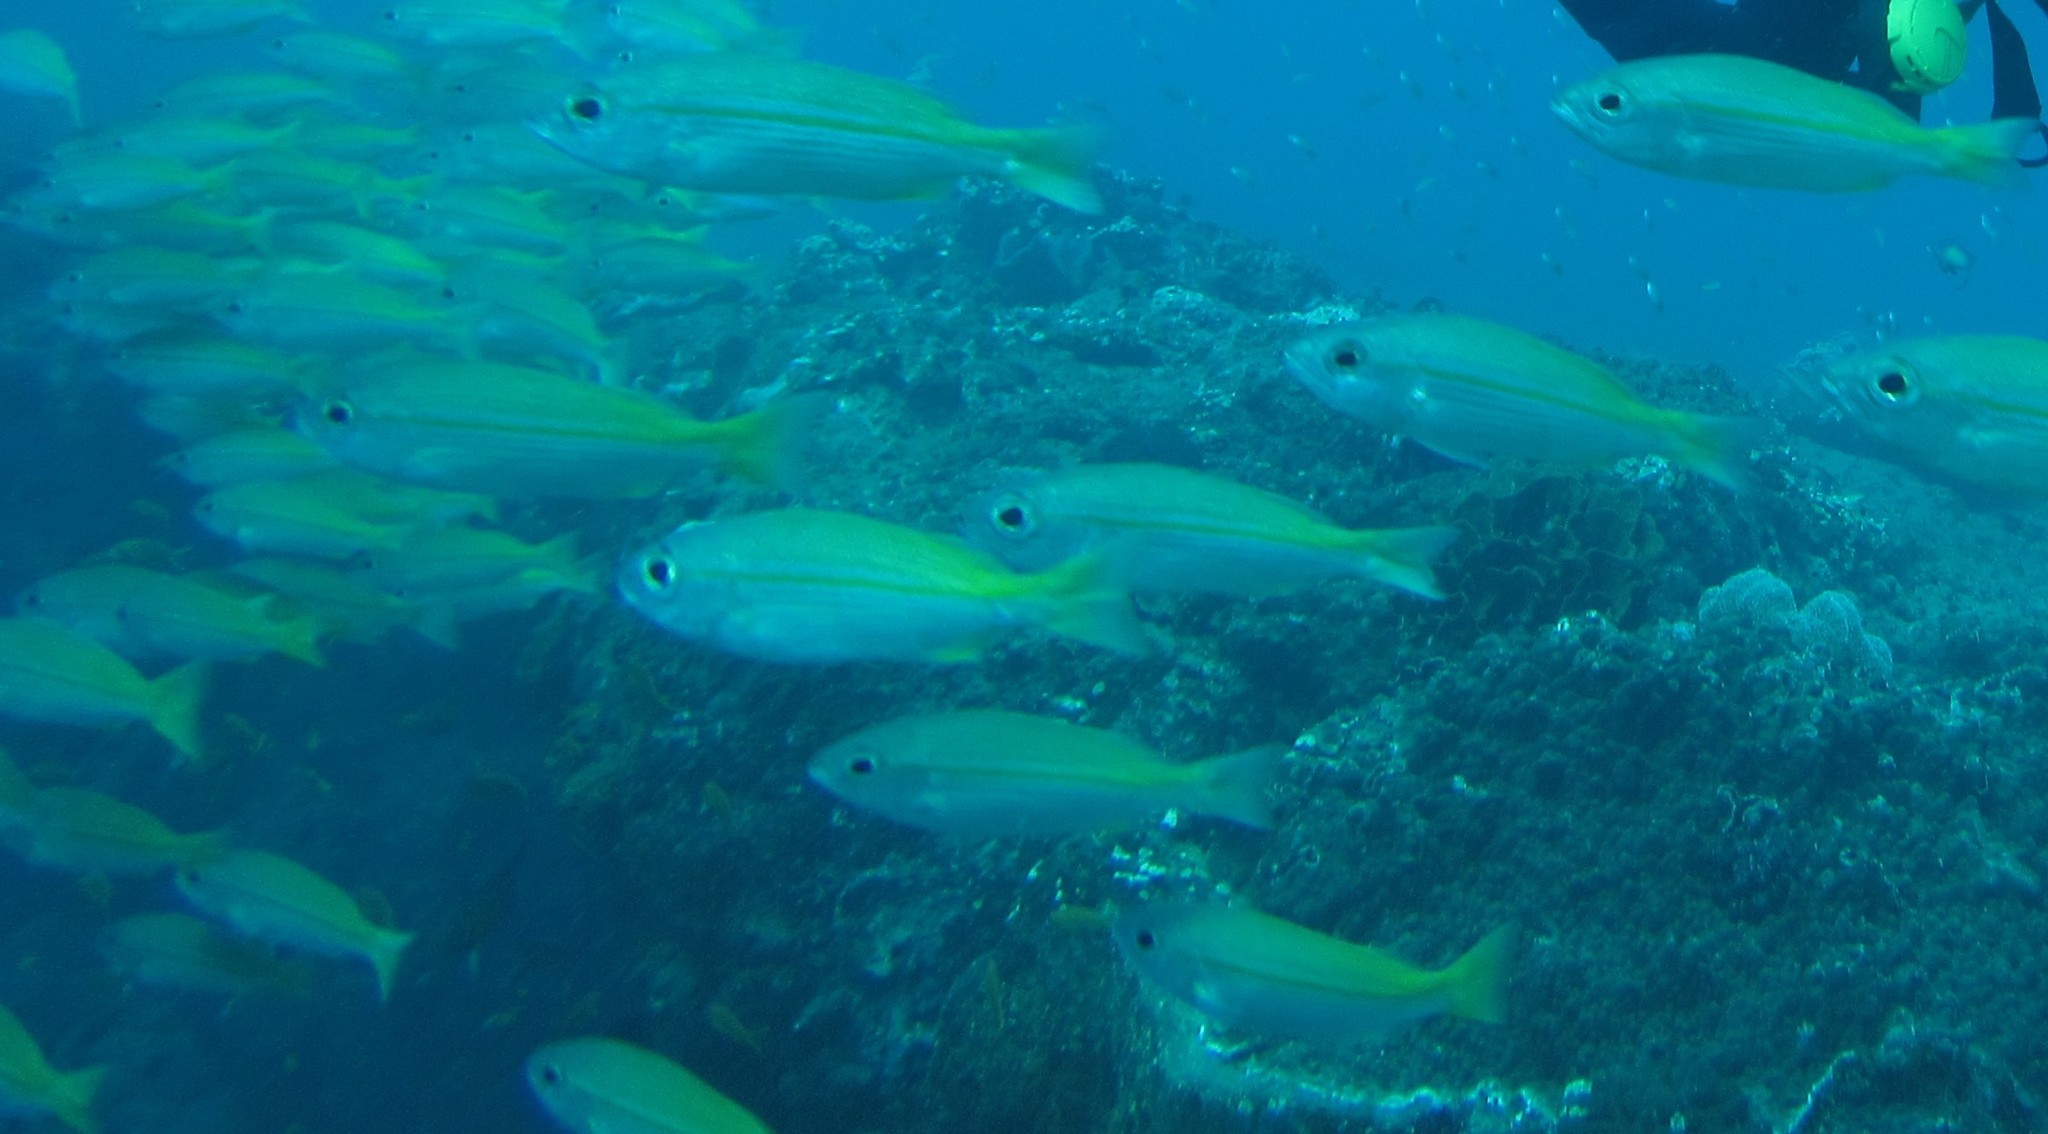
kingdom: Animalia
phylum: Chordata
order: Perciformes
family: Lutjanidae
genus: Lutjanus
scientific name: Lutjanus lutjanus
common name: Bigeye snapper
